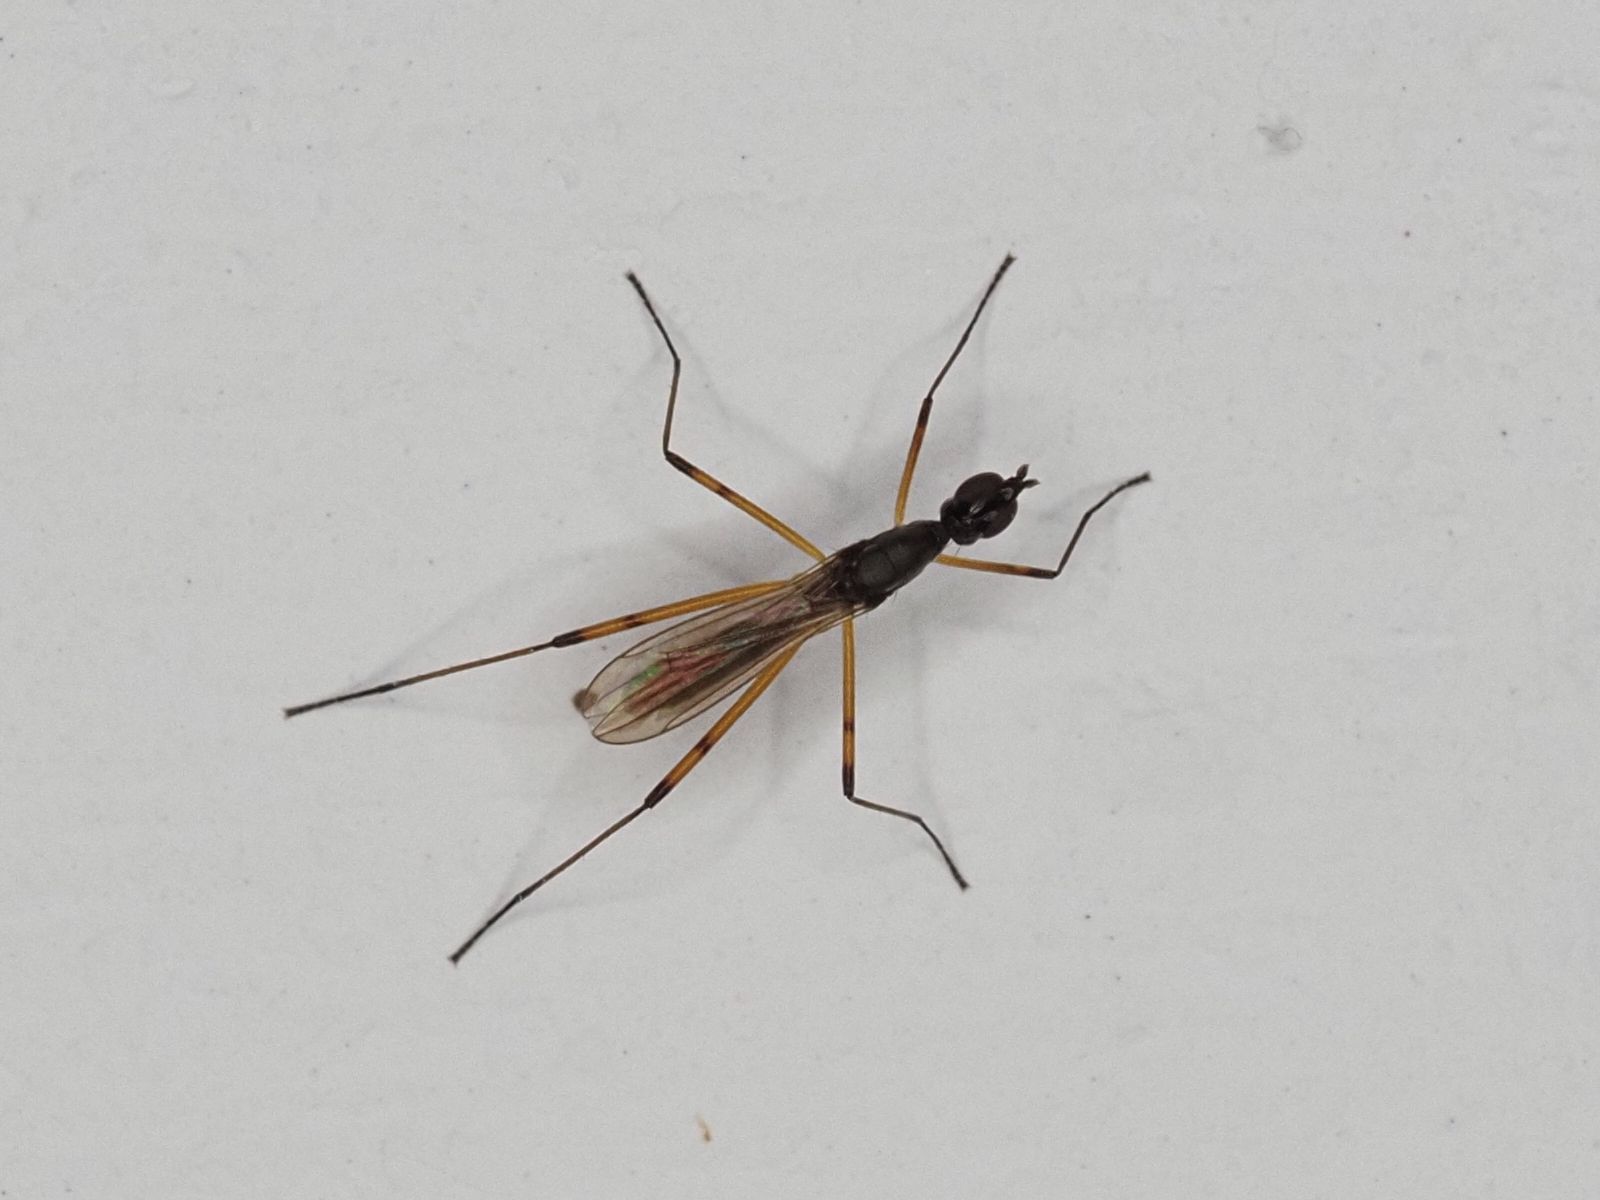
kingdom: Animalia
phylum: Arthropoda
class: Insecta
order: Diptera
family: Micropezidae
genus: Micropeza
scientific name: Micropeza corrigiolata
